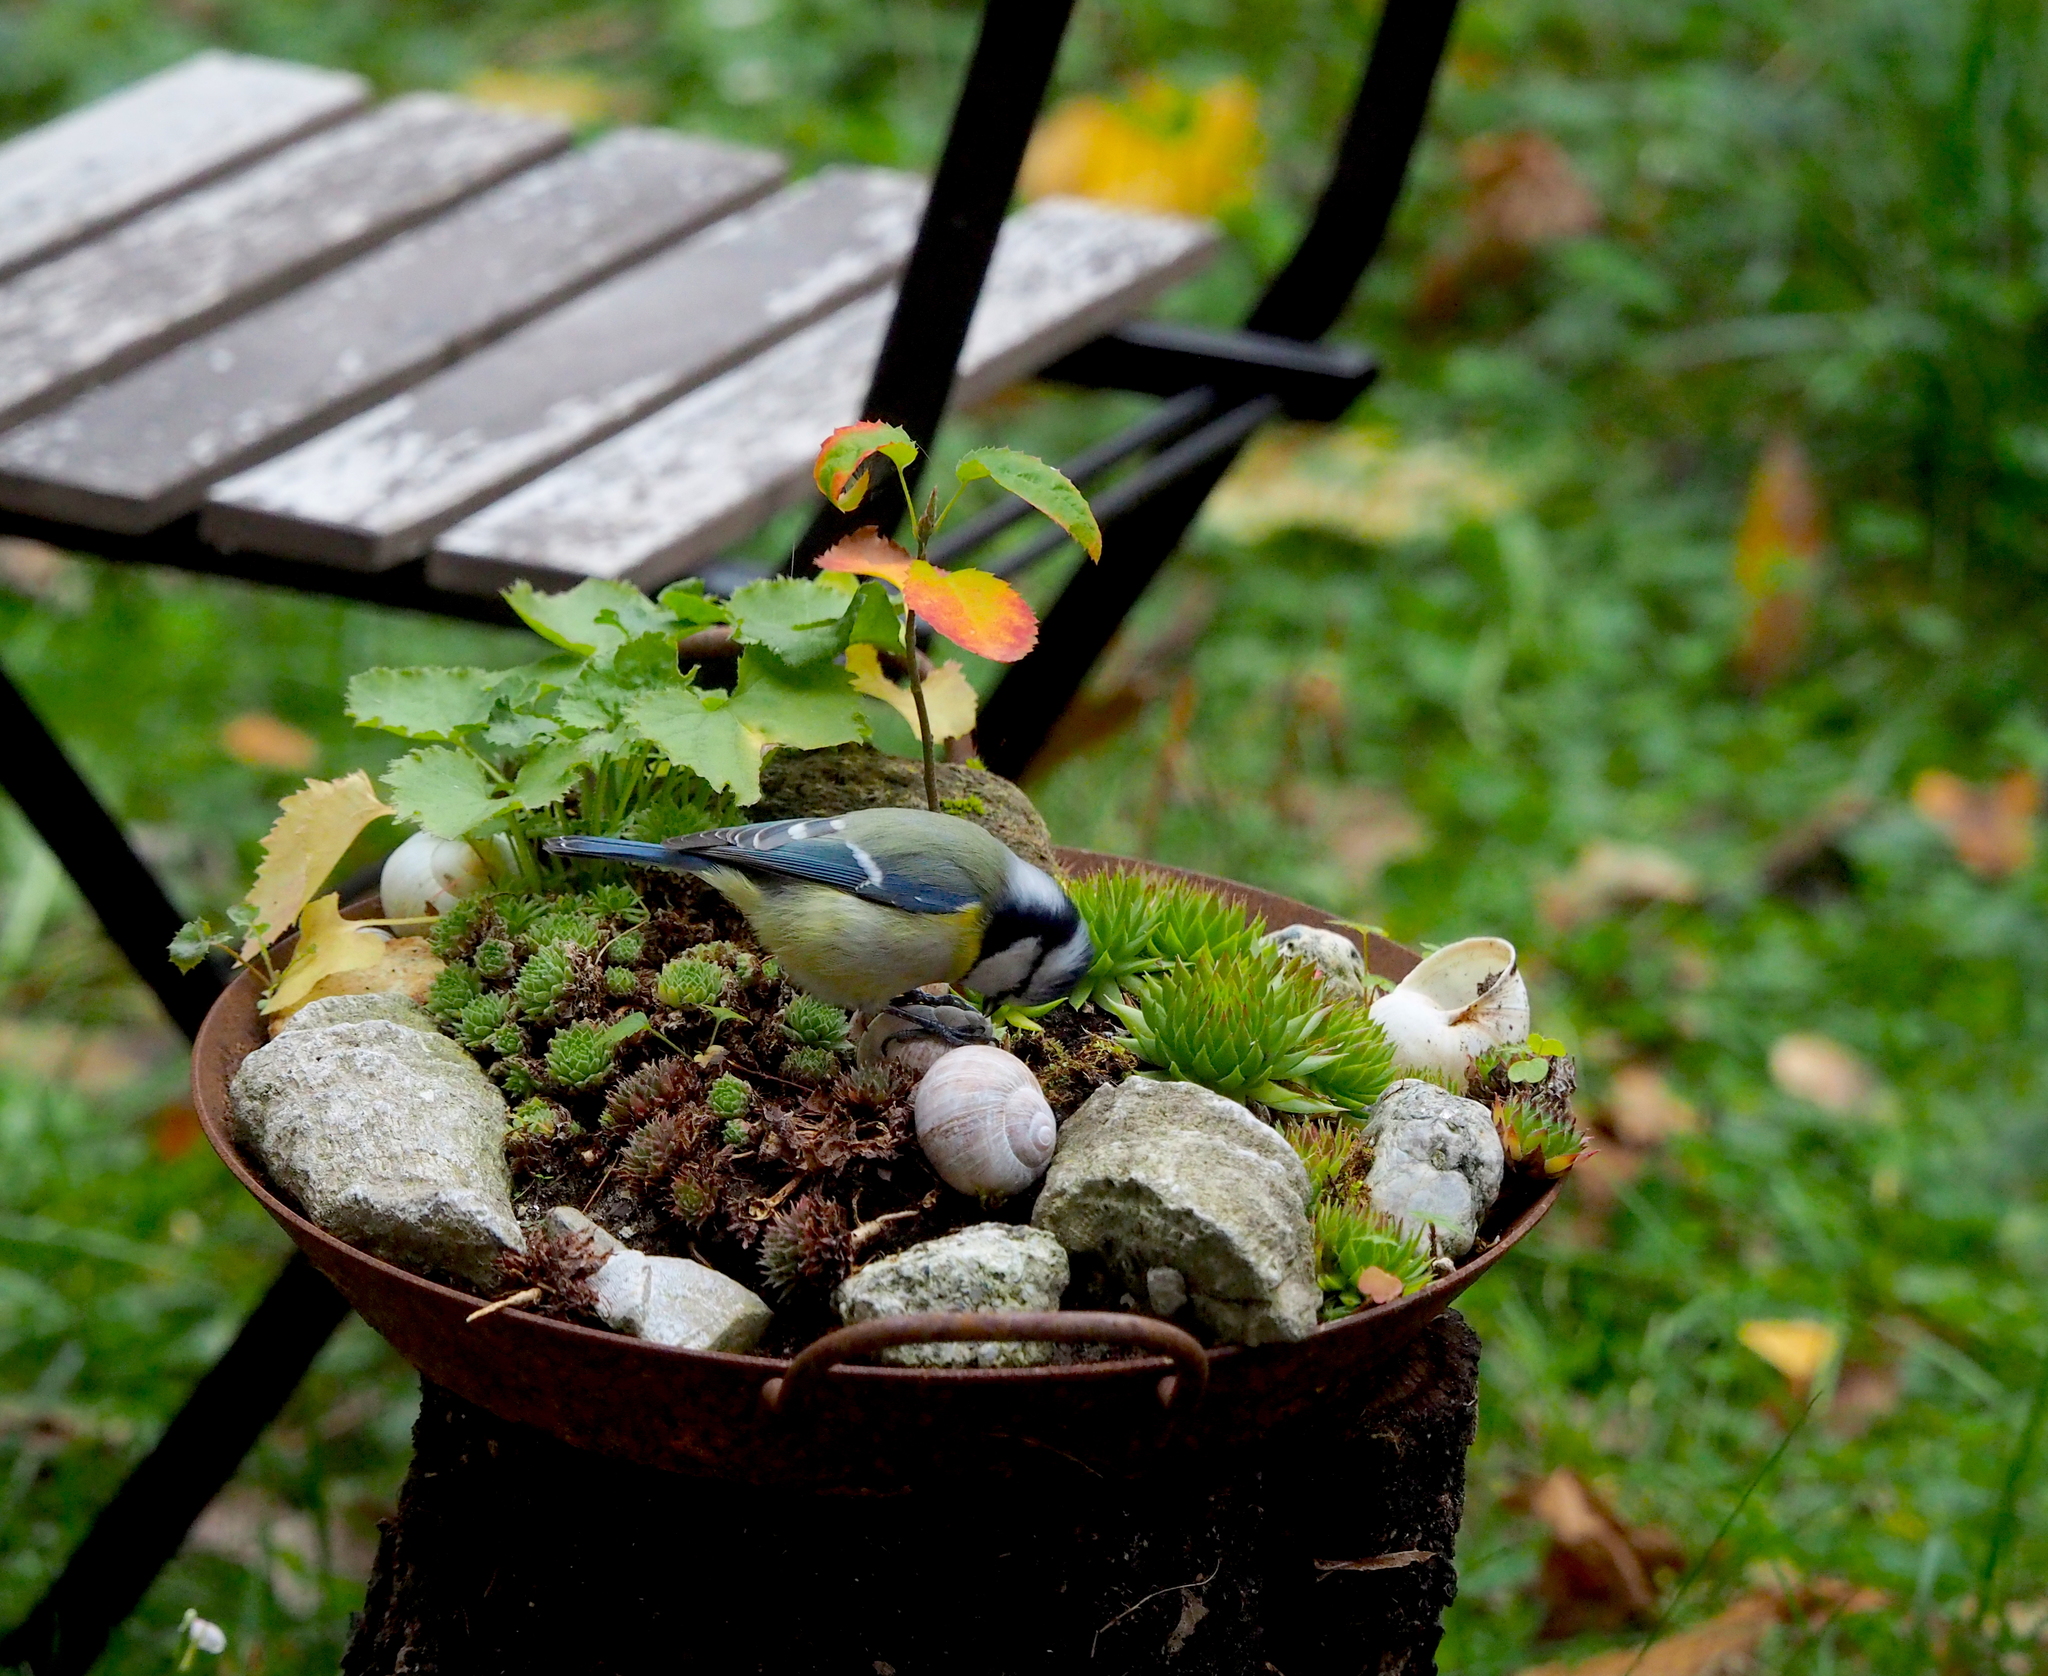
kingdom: Animalia
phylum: Chordata
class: Aves
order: Passeriformes
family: Paridae
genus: Cyanistes
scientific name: Cyanistes caeruleus
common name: Eurasian blue tit
